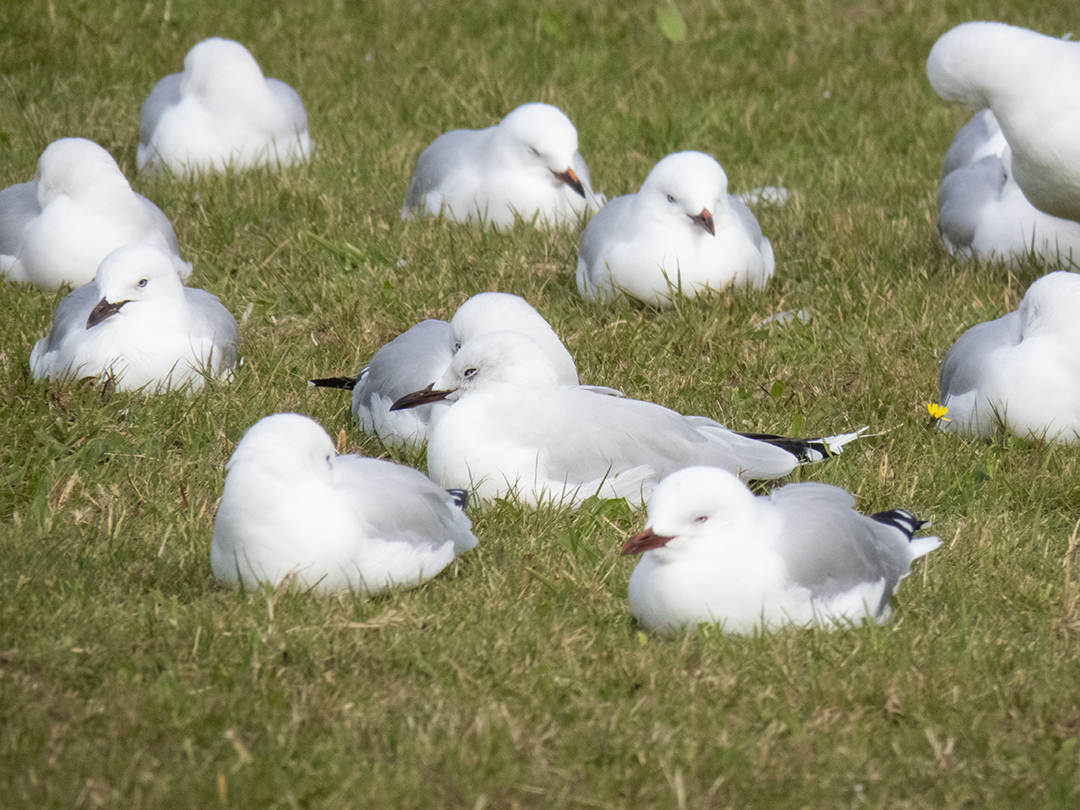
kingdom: Animalia
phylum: Chordata
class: Aves
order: Charadriiformes
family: Laridae
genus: Chroicocephalus
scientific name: Chroicocephalus novaehollandiae
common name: Silver gull
